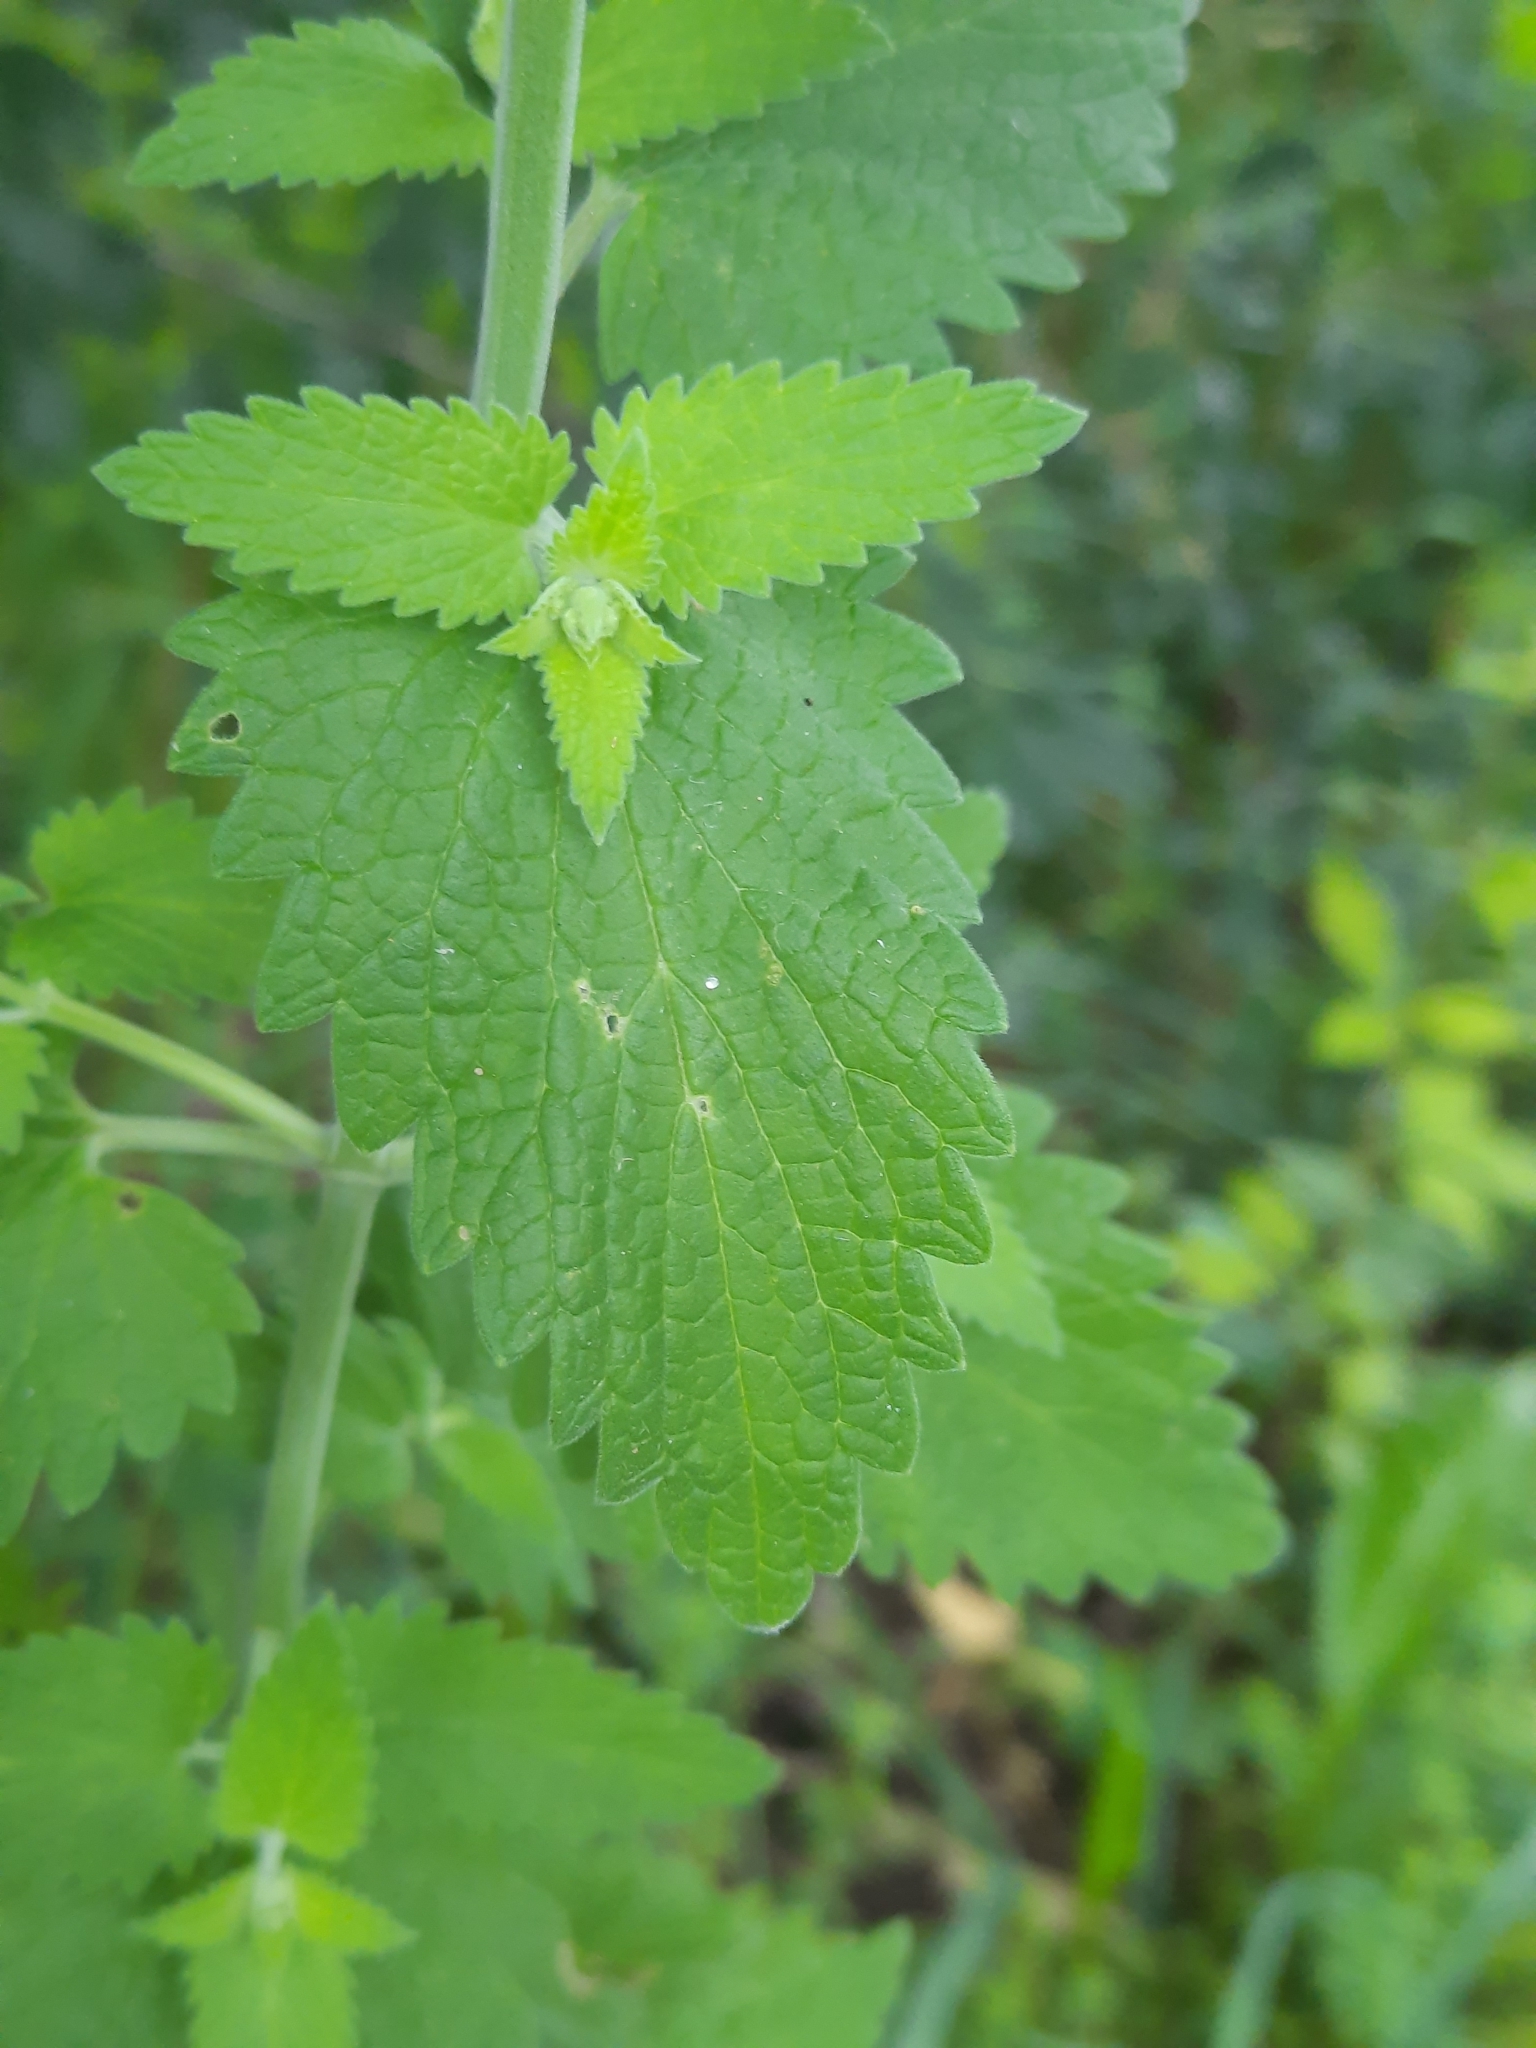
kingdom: Plantae
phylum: Tracheophyta
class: Magnoliopsida
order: Lamiales
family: Lamiaceae
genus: Nepeta
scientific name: Nepeta cataria
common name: Catnip
